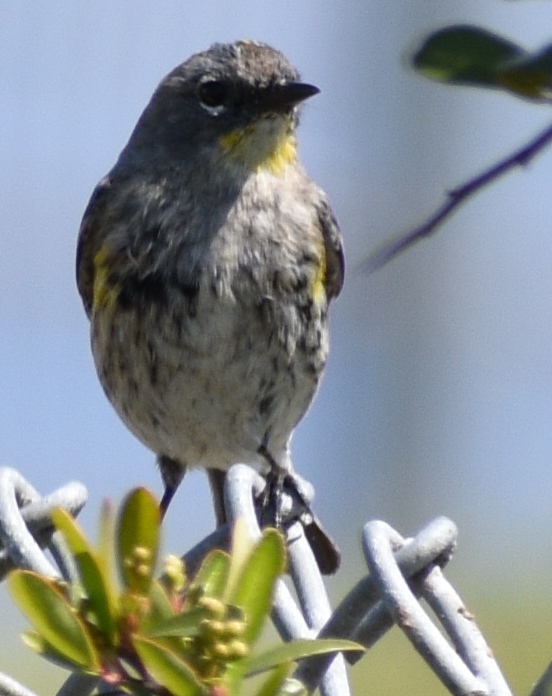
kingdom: Animalia
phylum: Chordata
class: Aves
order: Passeriformes
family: Parulidae
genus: Setophaga
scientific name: Setophaga coronata
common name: Myrtle warbler
